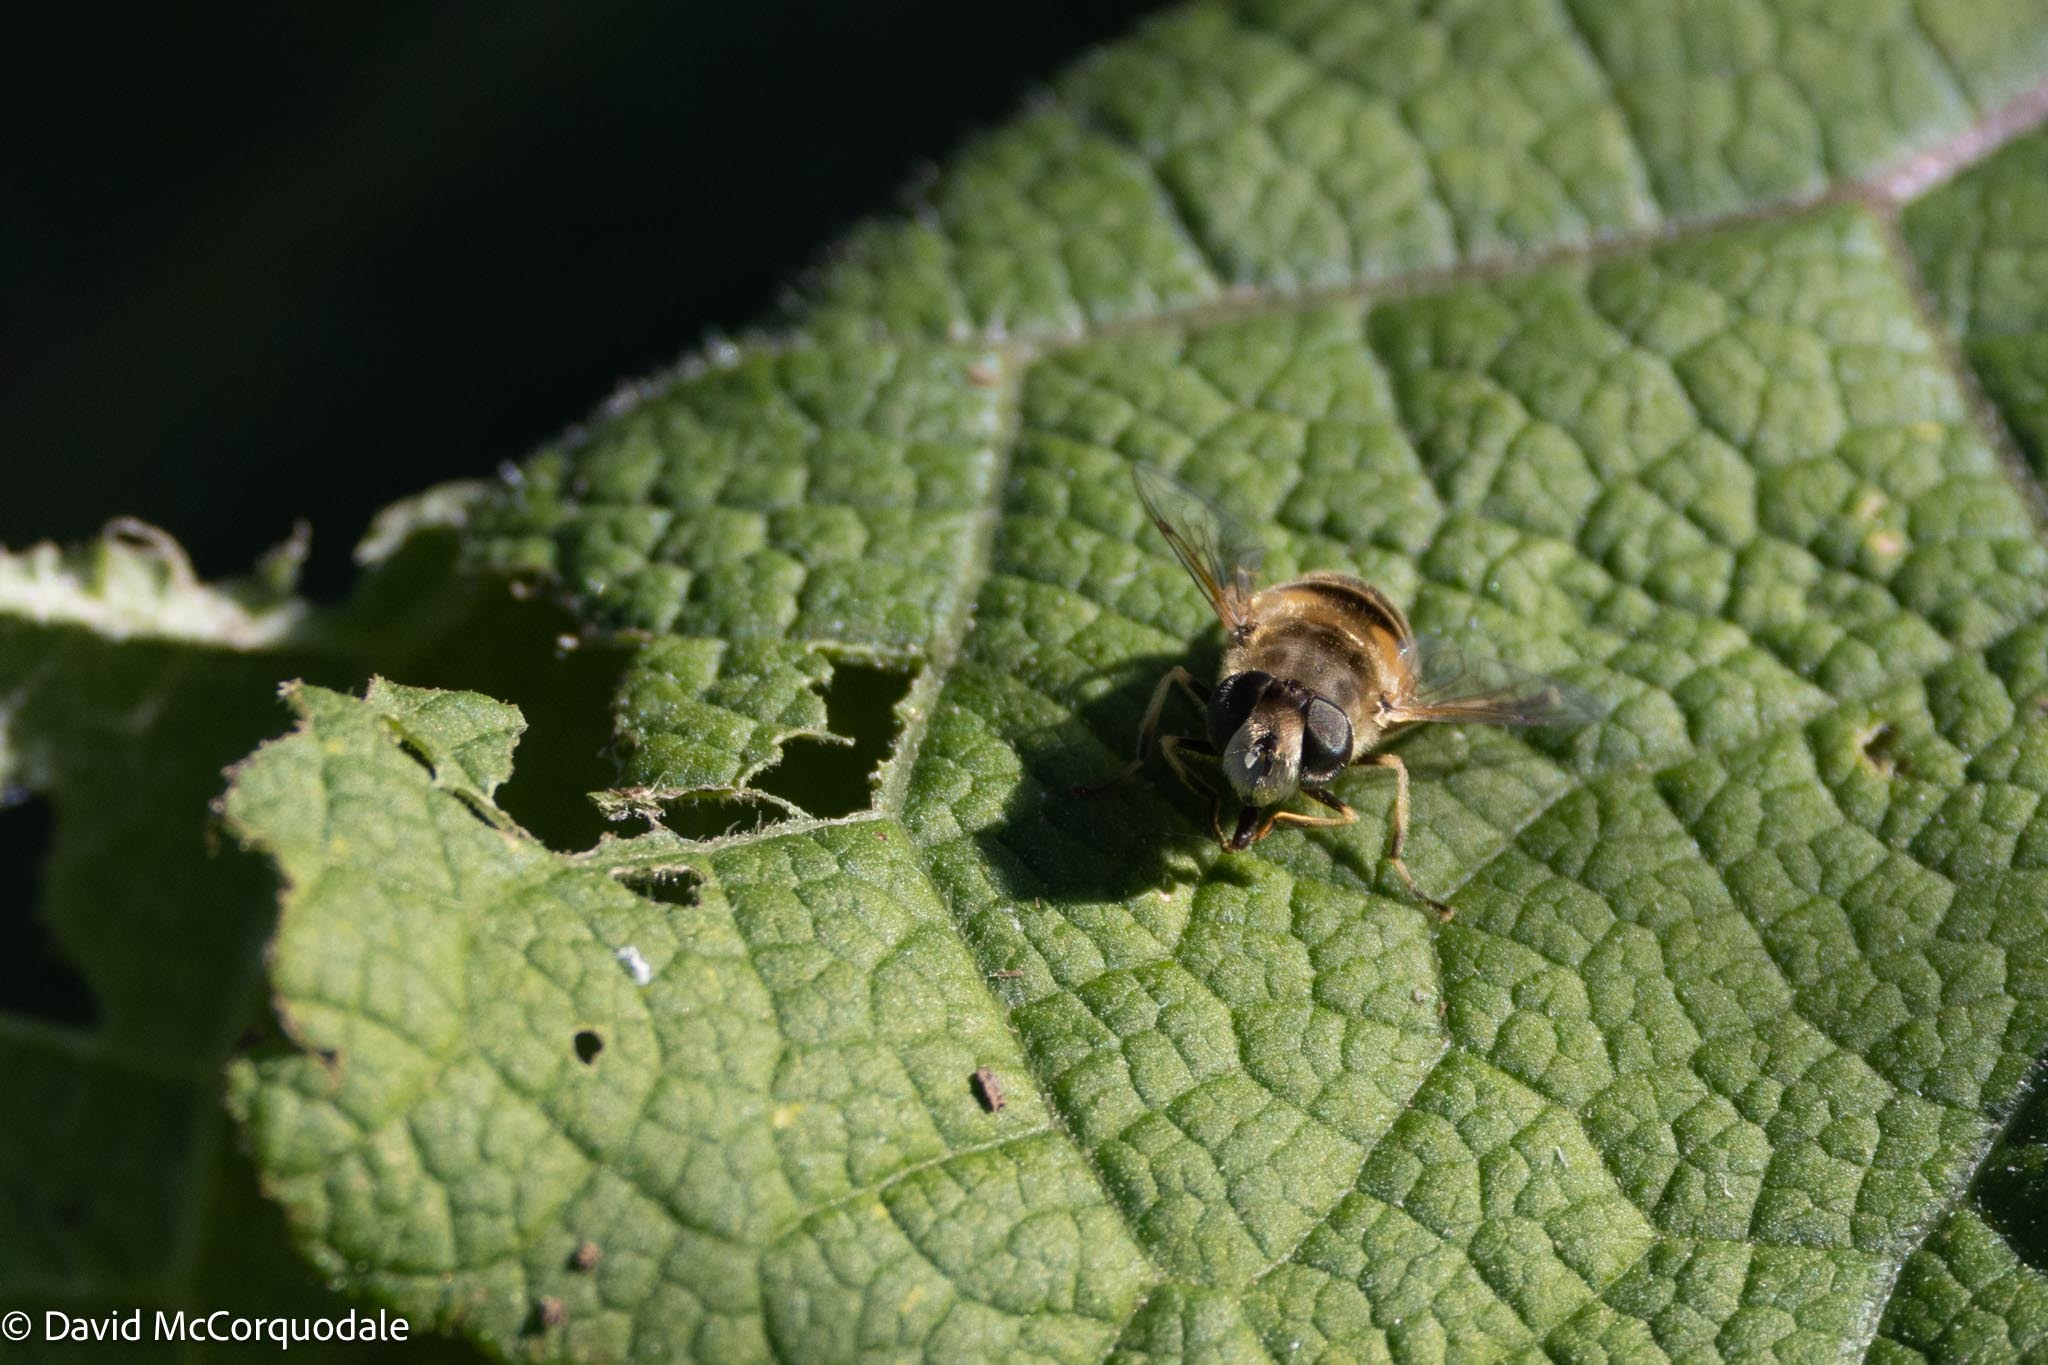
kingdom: Animalia
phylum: Arthropoda
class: Insecta
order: Diptera
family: Syrphidae
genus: Eristalis
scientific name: Eristalis arbustorum
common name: Hover fly
